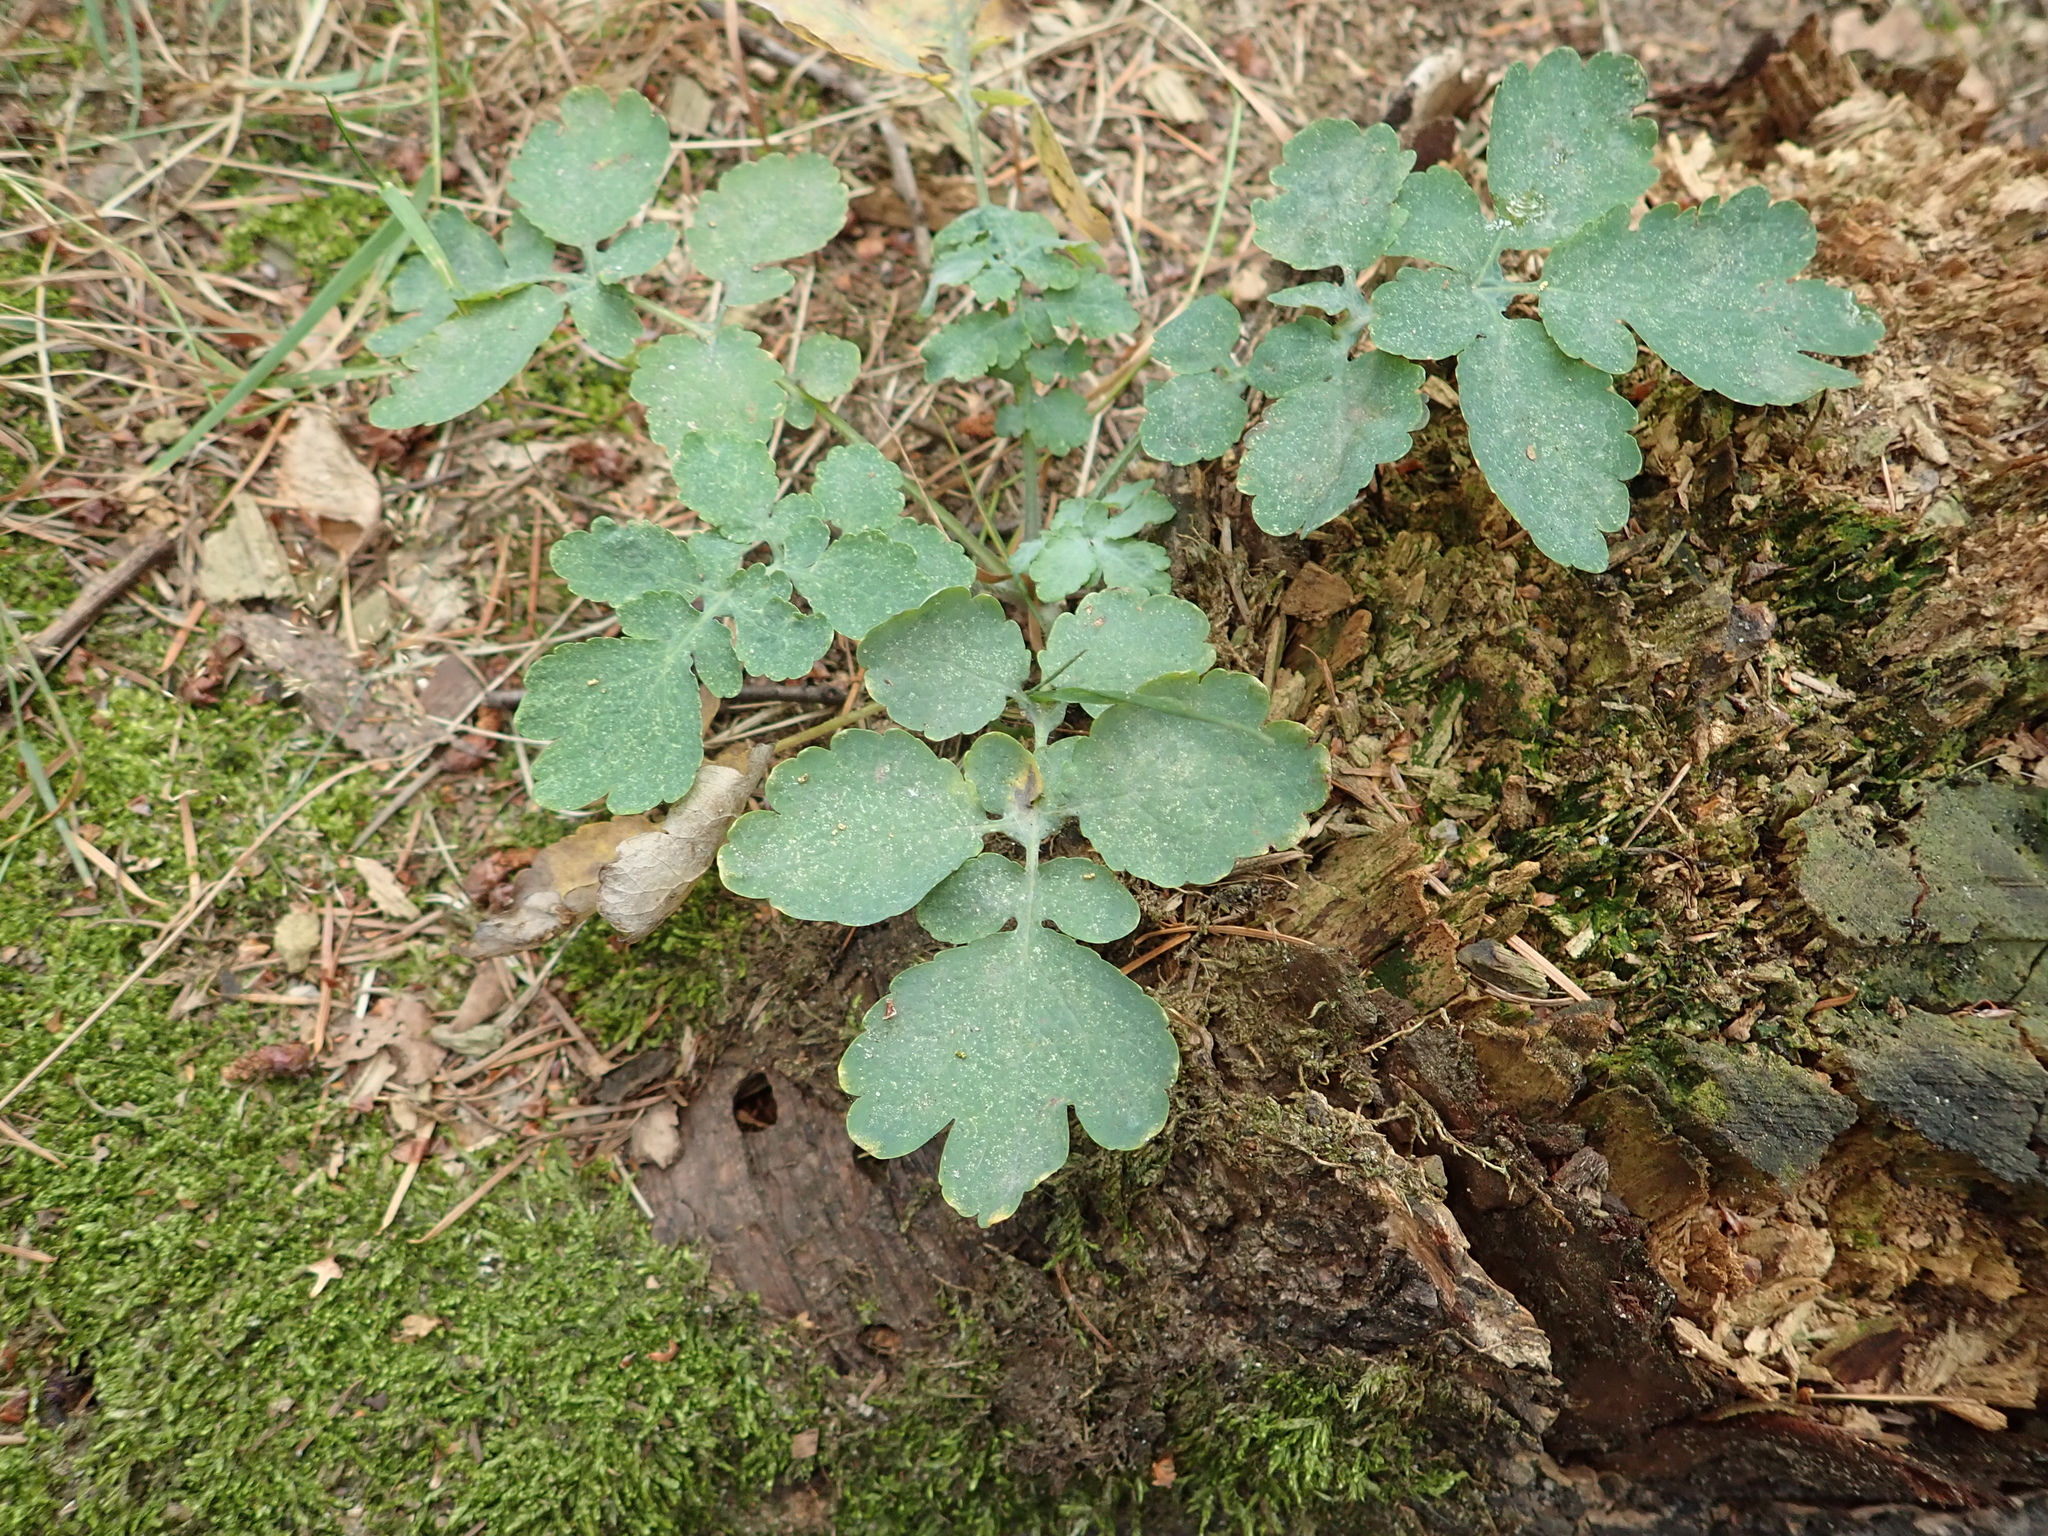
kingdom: Plantae
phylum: Tracheophyta
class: Magnoliopsida
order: Ranunculales
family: Papaveraceae
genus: Chelidonium
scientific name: Chelidonium majus
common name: Greater celandine
